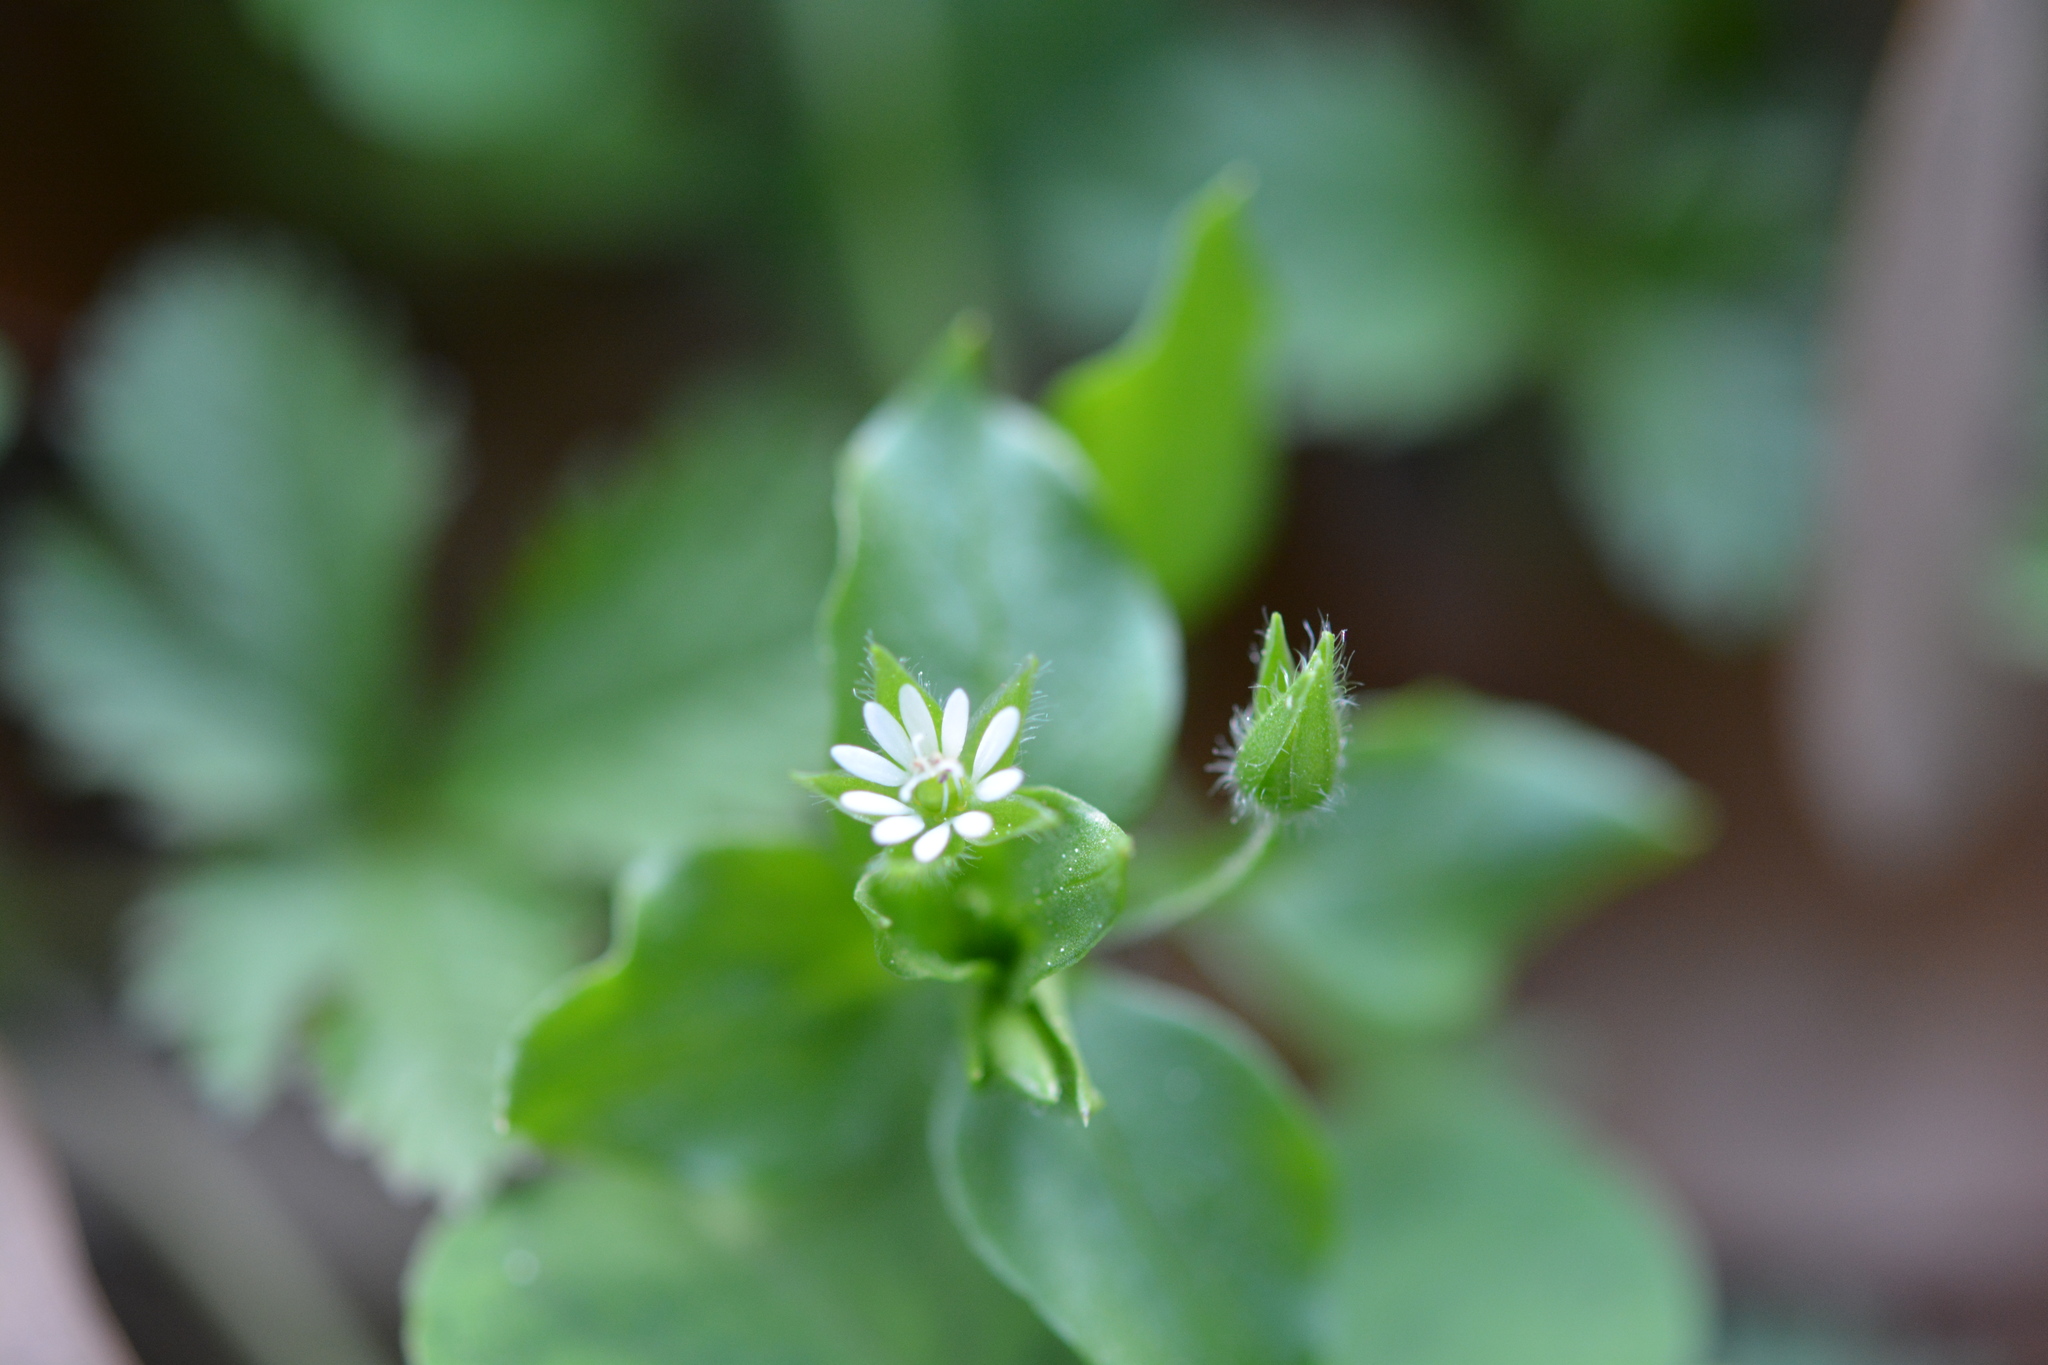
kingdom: Plantae
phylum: Tracheophyta
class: Magnoliopsida
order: Caryophyllales
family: Caryophyllaceae
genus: Stellaria
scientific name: Stellaria media
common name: Common chickweed
